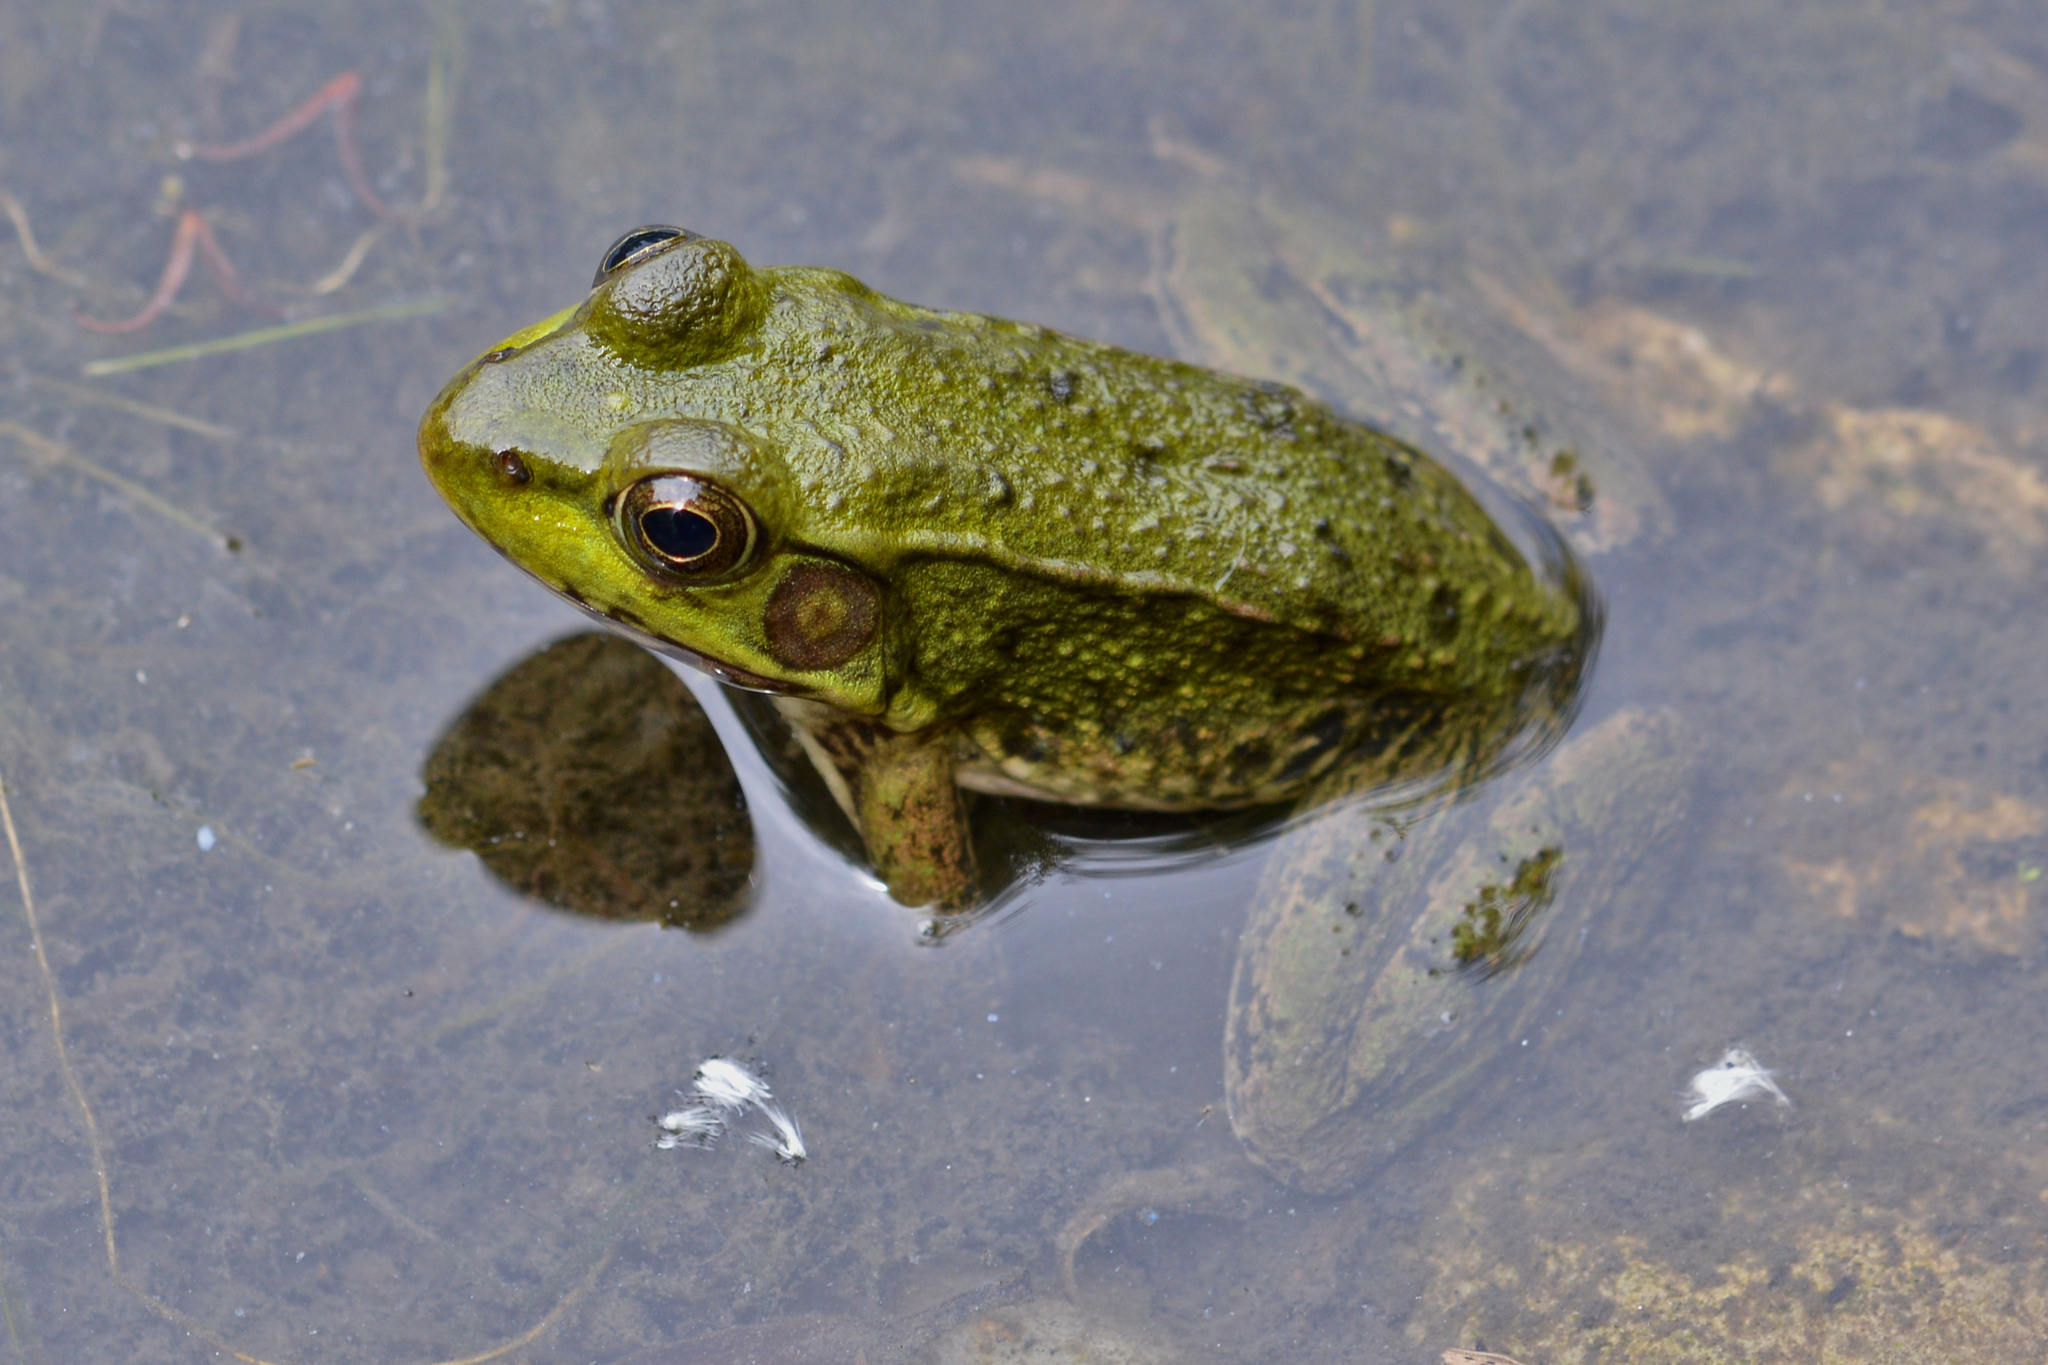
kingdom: Animalia
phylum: Chordata
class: Amphibia
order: Anura
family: Ranidae
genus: Lithobates
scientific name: Lithobates clamitans
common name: Green frog
